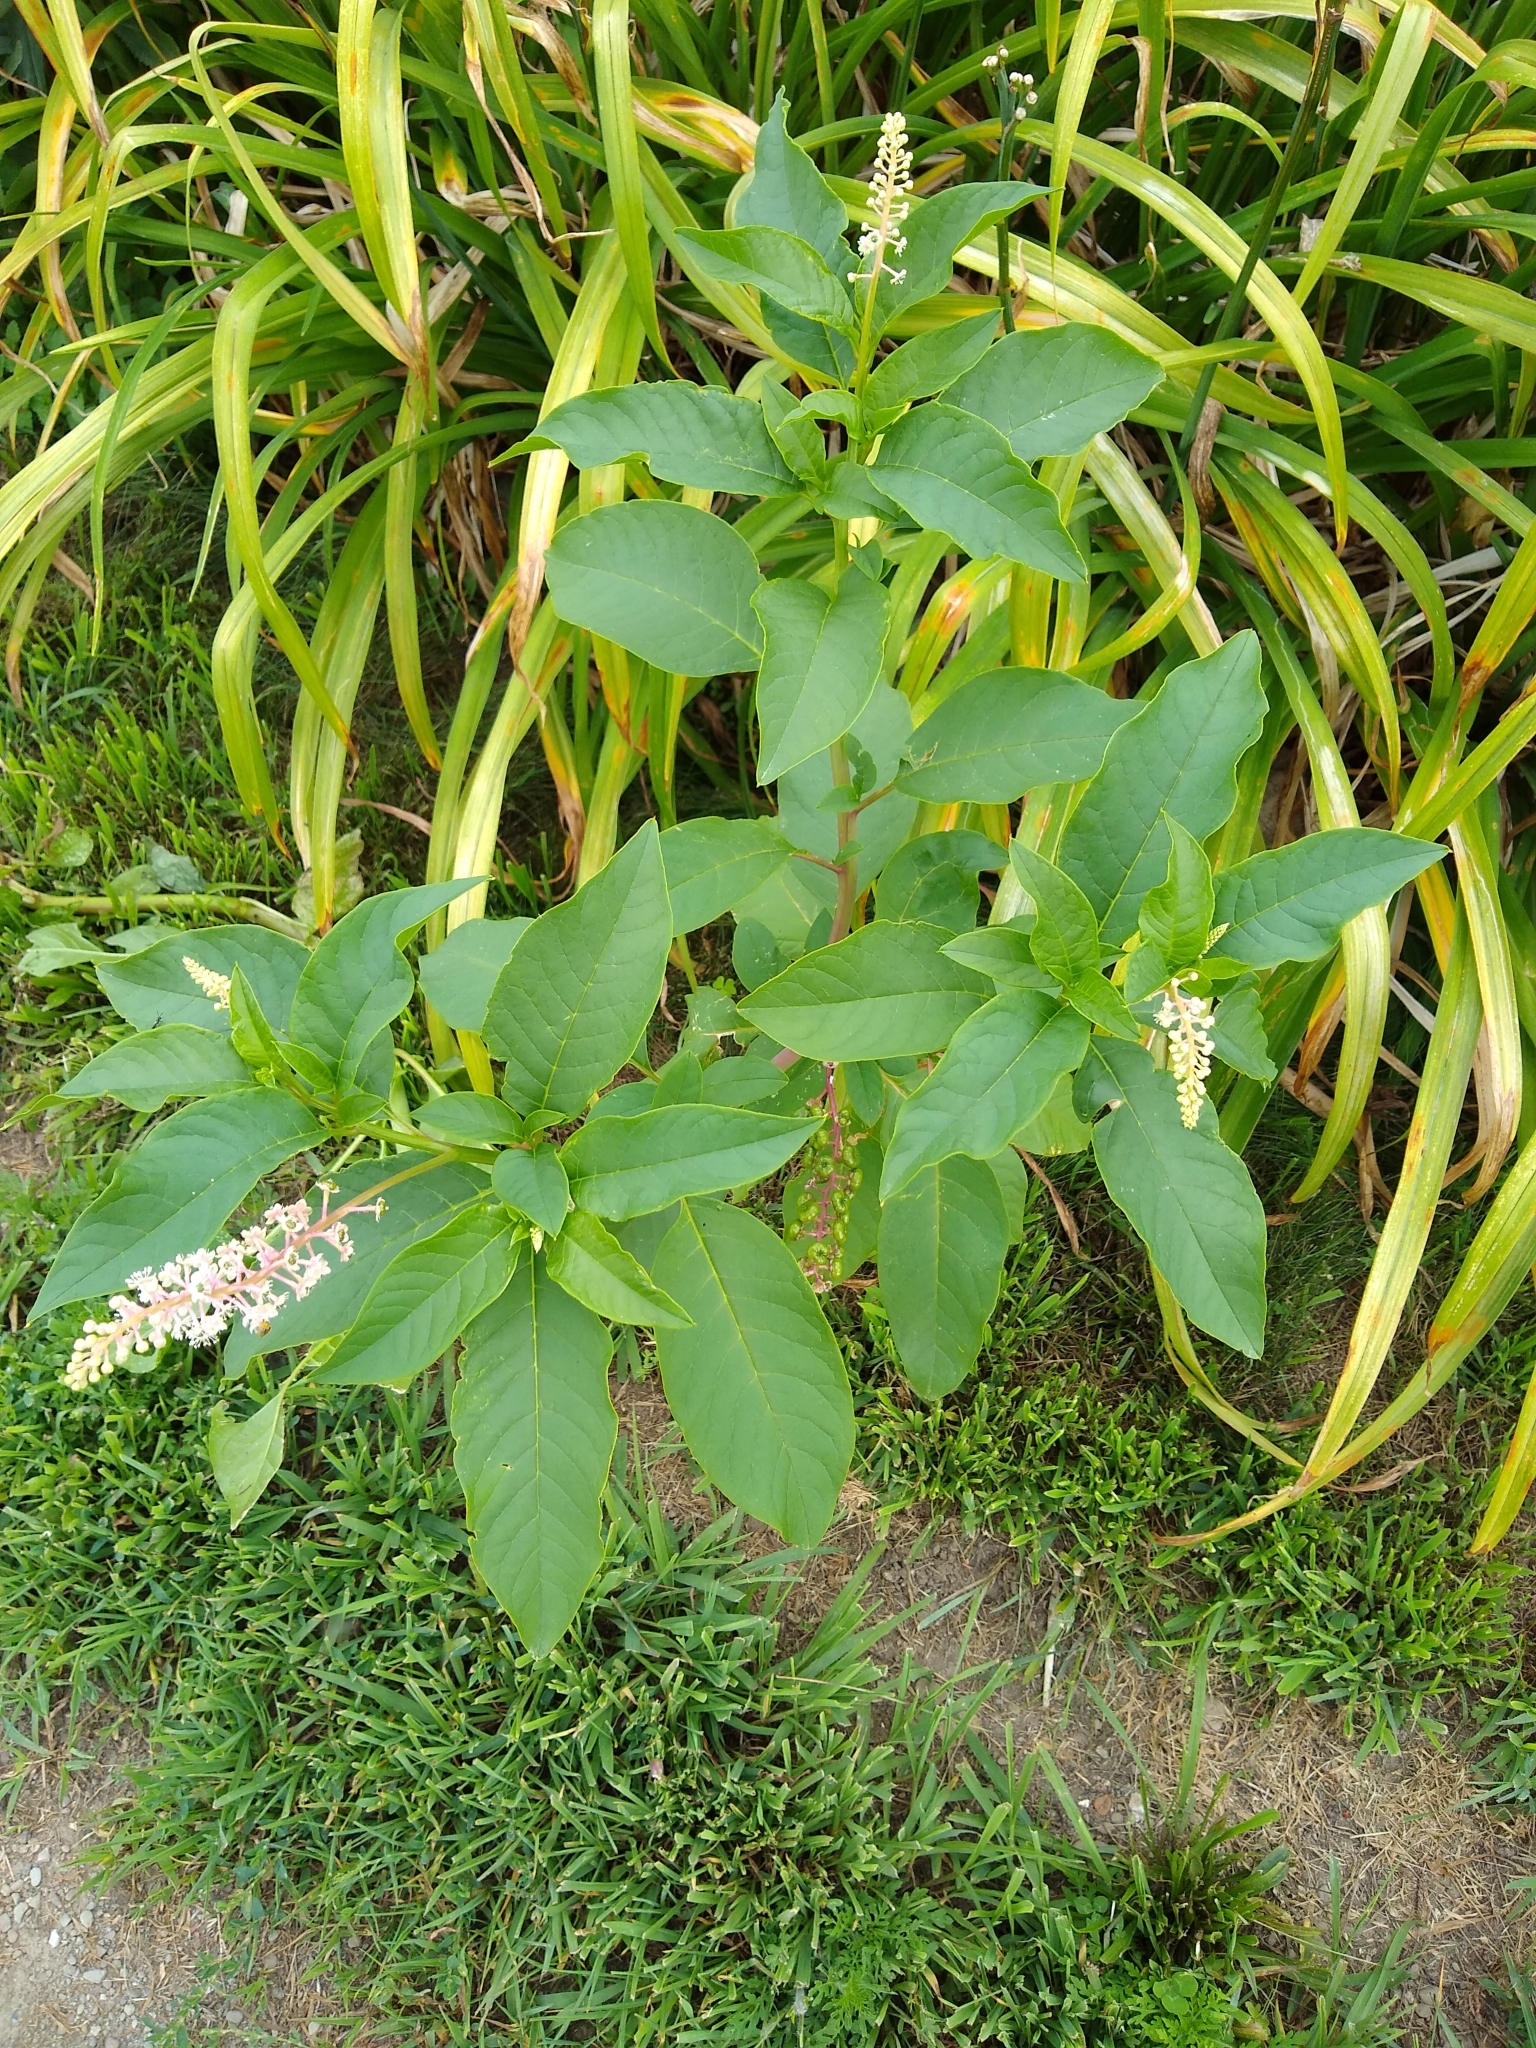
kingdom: Plantae
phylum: Tracheophyta
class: Magnoliopsida
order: Caryophyllales
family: Phytolaccaceae
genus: Phytolacca
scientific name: Phytolacca americana
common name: American pokeweed
